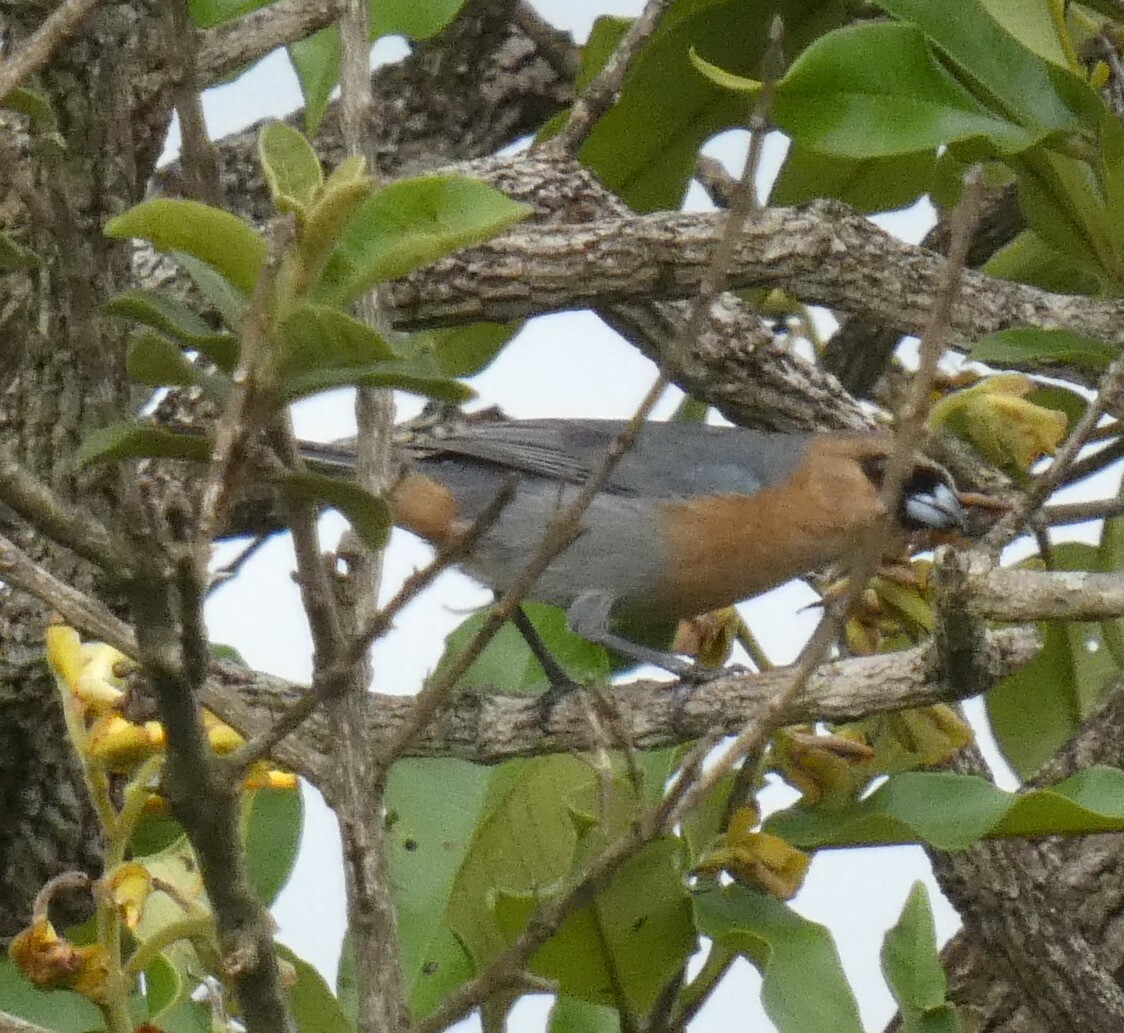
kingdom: Animalia
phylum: Chordata
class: Aves
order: Passeriformes
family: Thraupidae
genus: Schistochlamys
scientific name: Schistochlamys ruficapillus
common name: Cinnamon tanager
